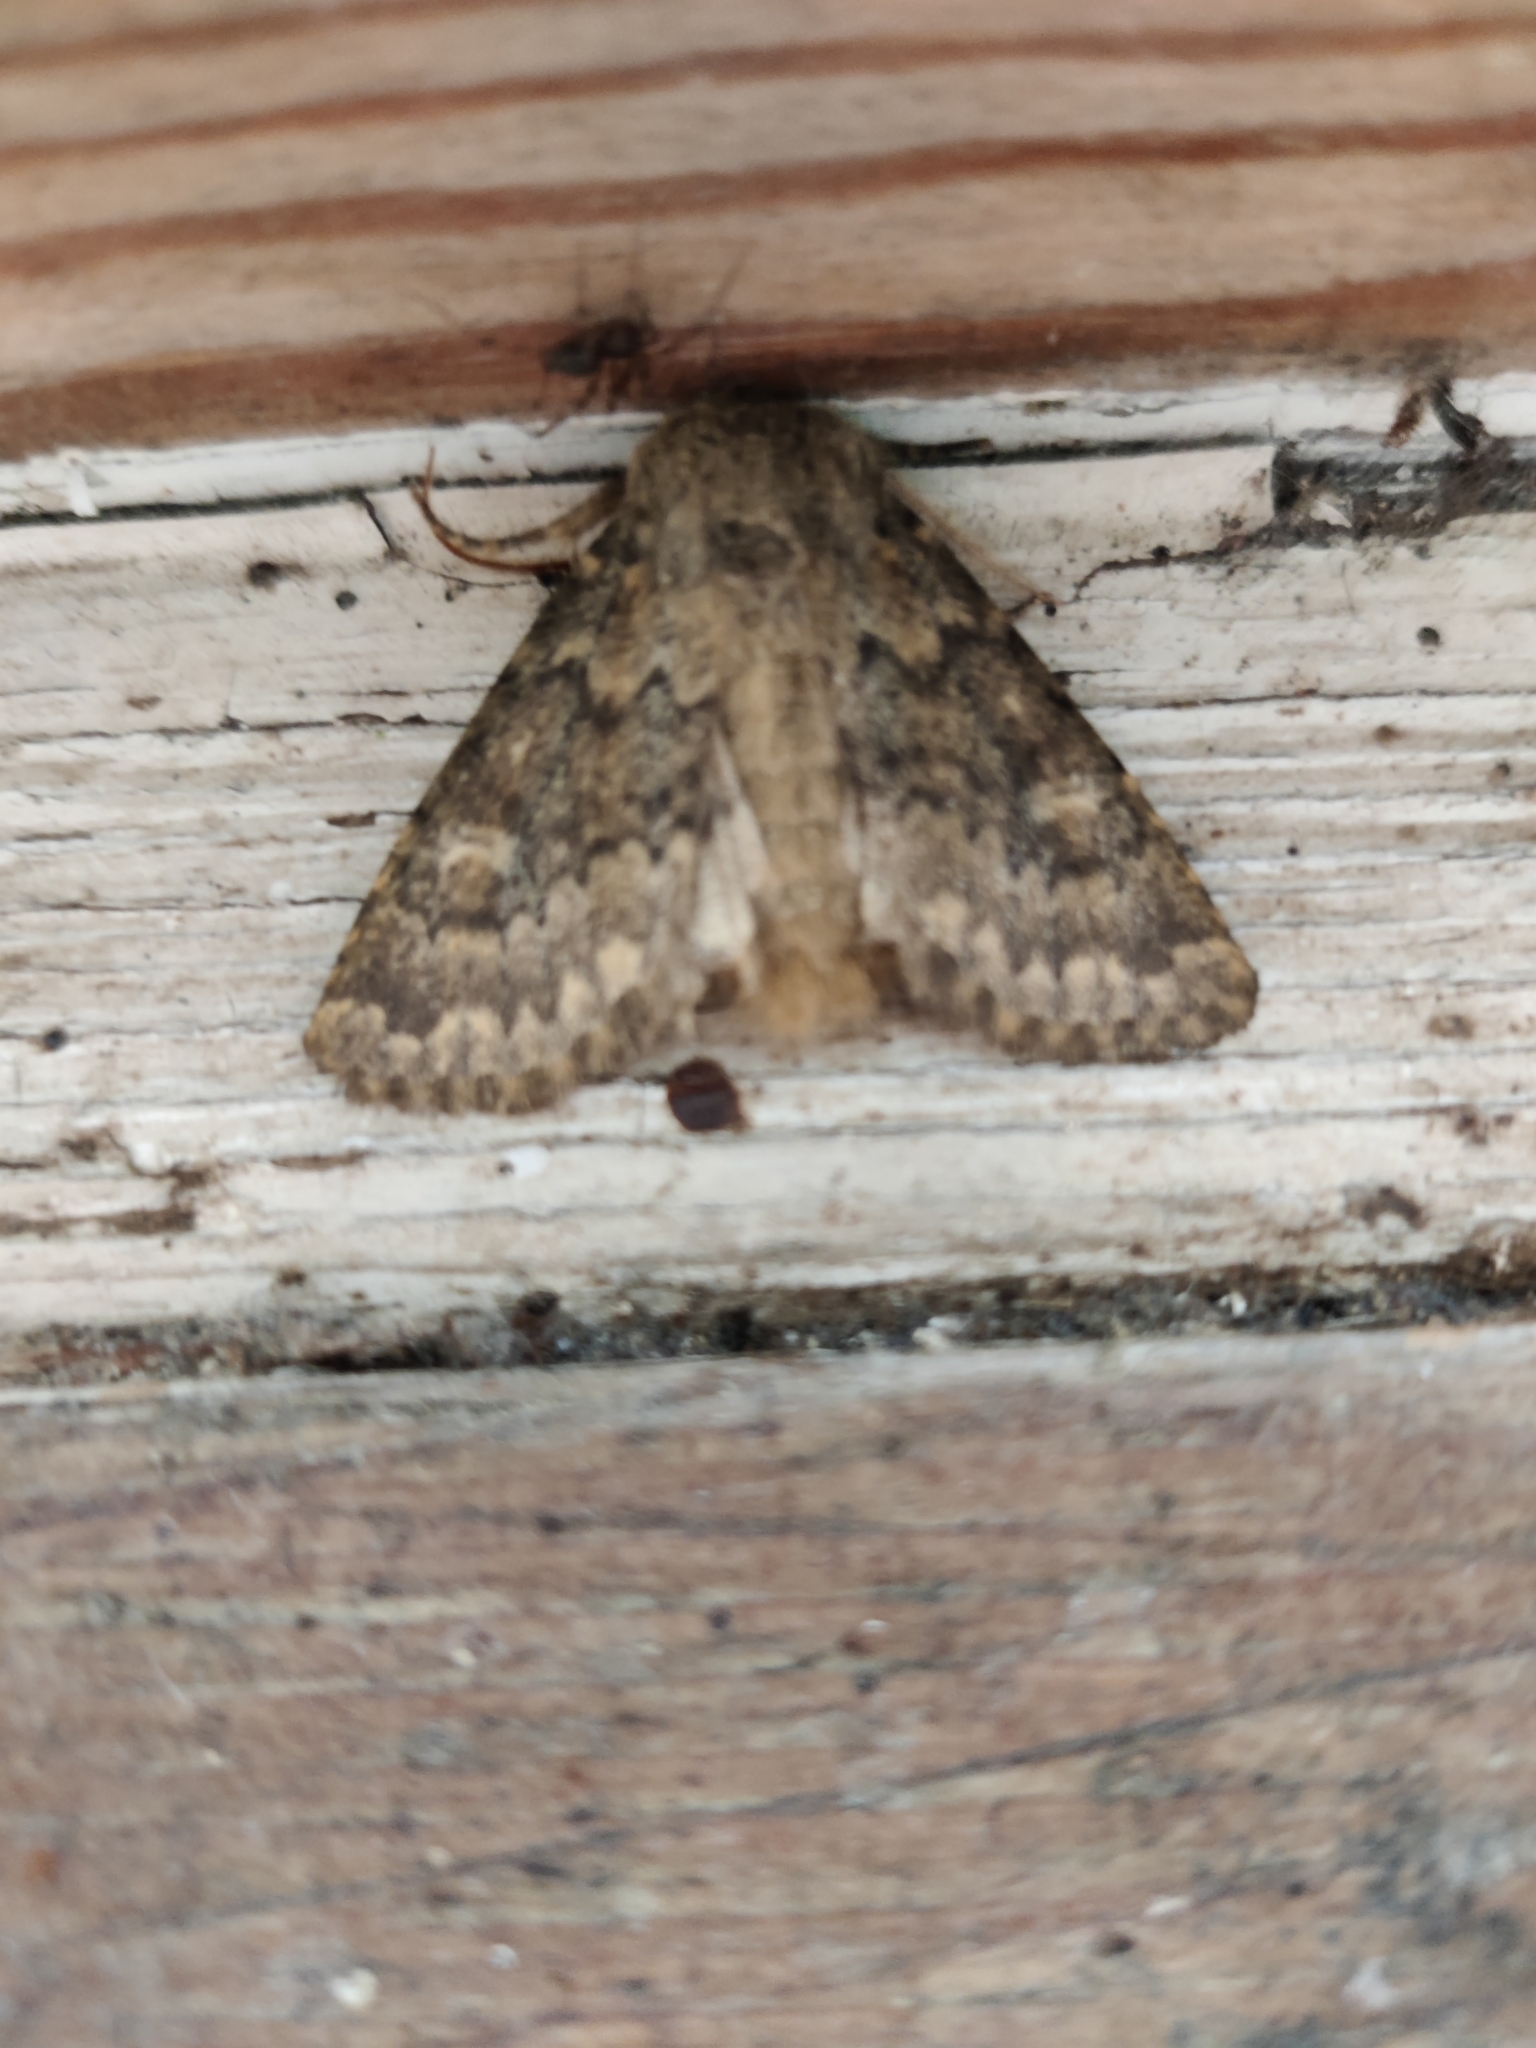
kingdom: Animalia
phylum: Arthropoda
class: Insecta
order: Lepidoptera
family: Noctuidae
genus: Dasypolia
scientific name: Dasypolia templi
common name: Brindled ochre
